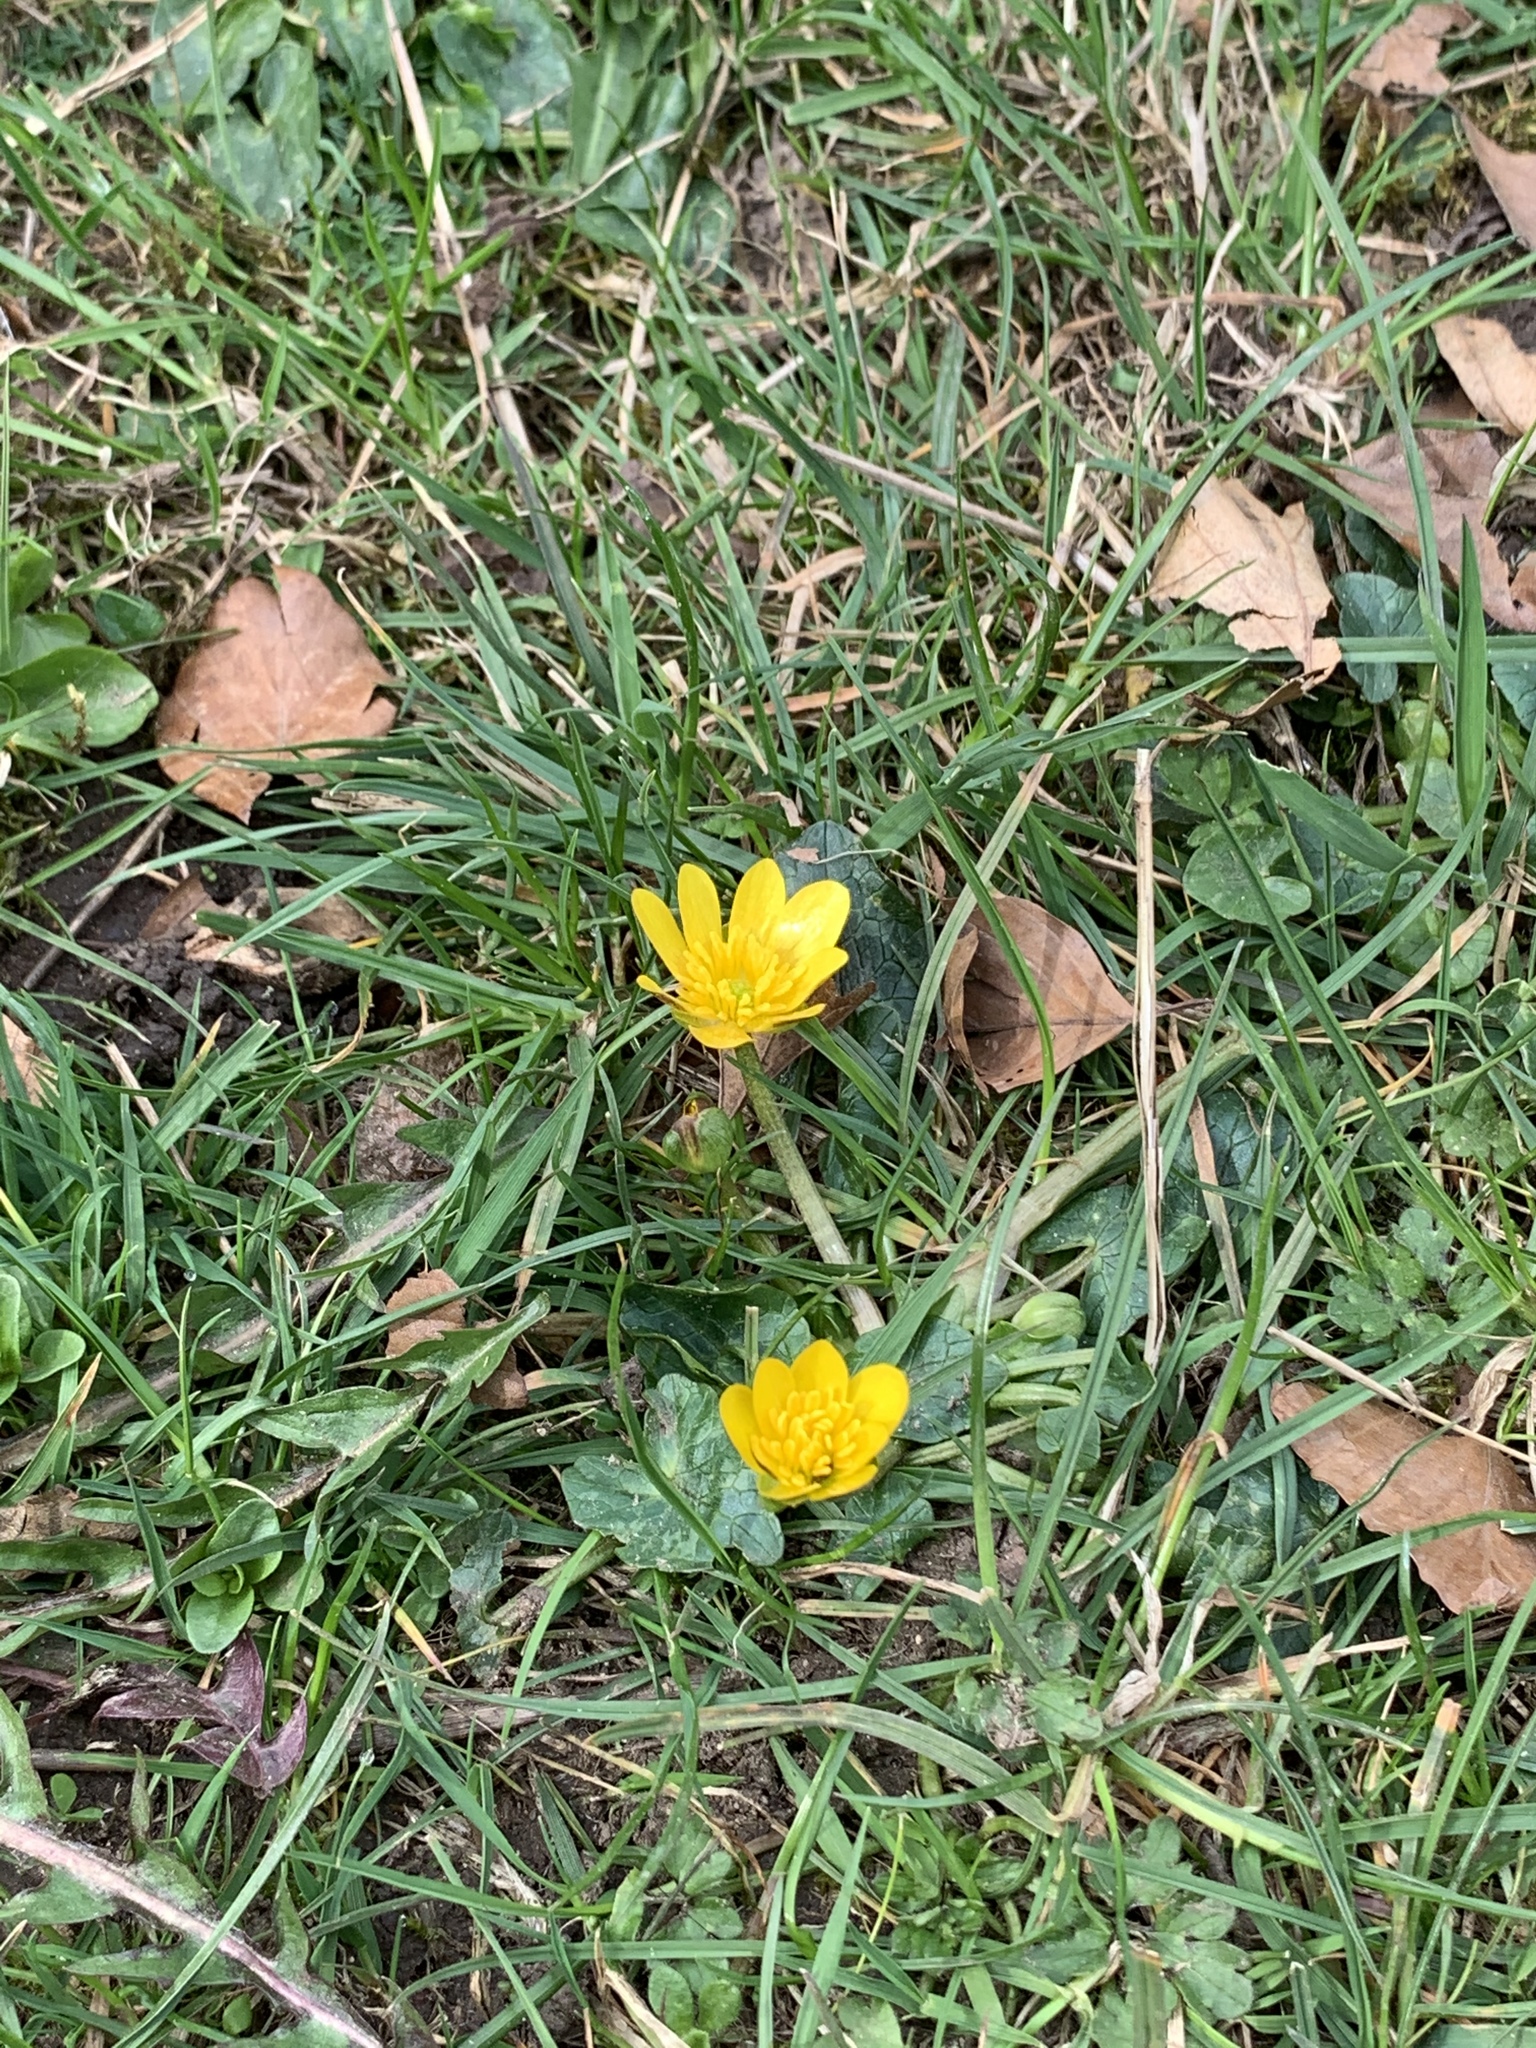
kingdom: Plantae
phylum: Tracheophyta
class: Magnoliopsida
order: Ranunculales
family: Ranunculaceae
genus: Ficaria
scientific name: Ficaria verna
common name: Lesser celandine
